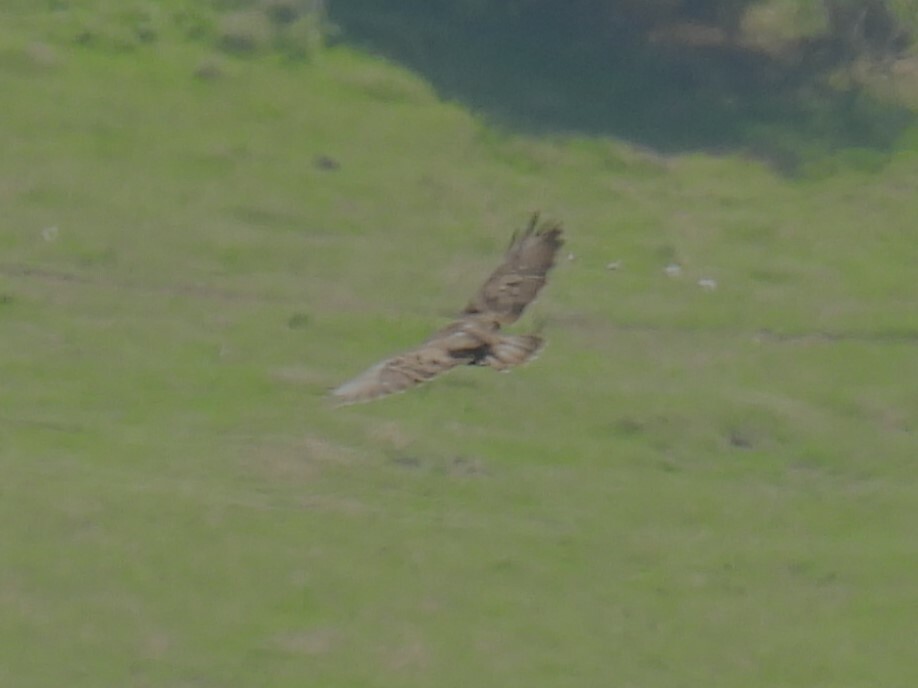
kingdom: Animalia
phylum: Chordata
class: Aves
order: Accipitriformes
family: Accipitridae
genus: Buteo
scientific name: Buteo buteo
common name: Common buzzard
